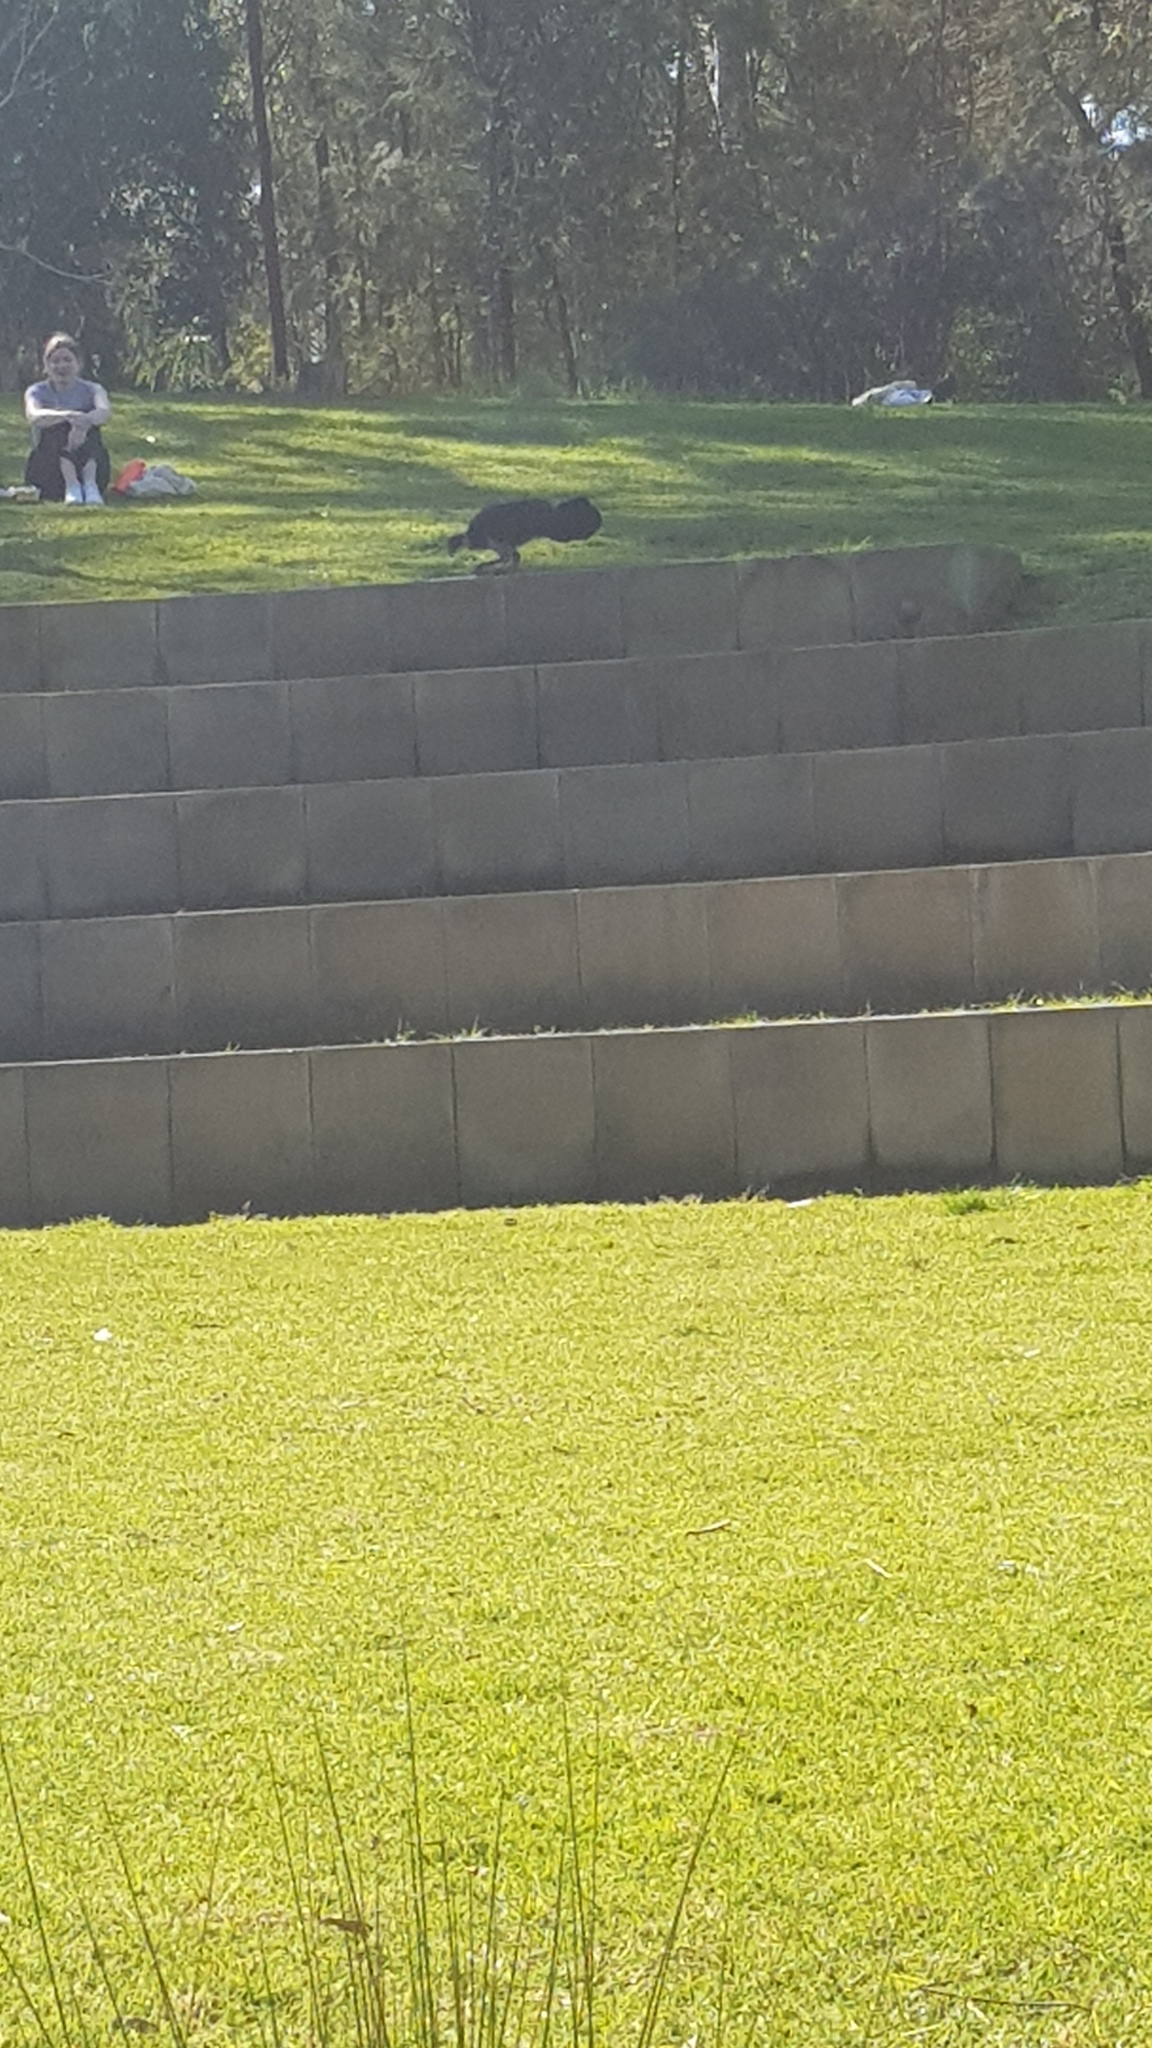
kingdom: Animalia
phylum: Chordata
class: Aves
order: Galliformes
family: Megapodiidae
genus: Alectura
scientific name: Alectura lathami
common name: Australian brushturkey
